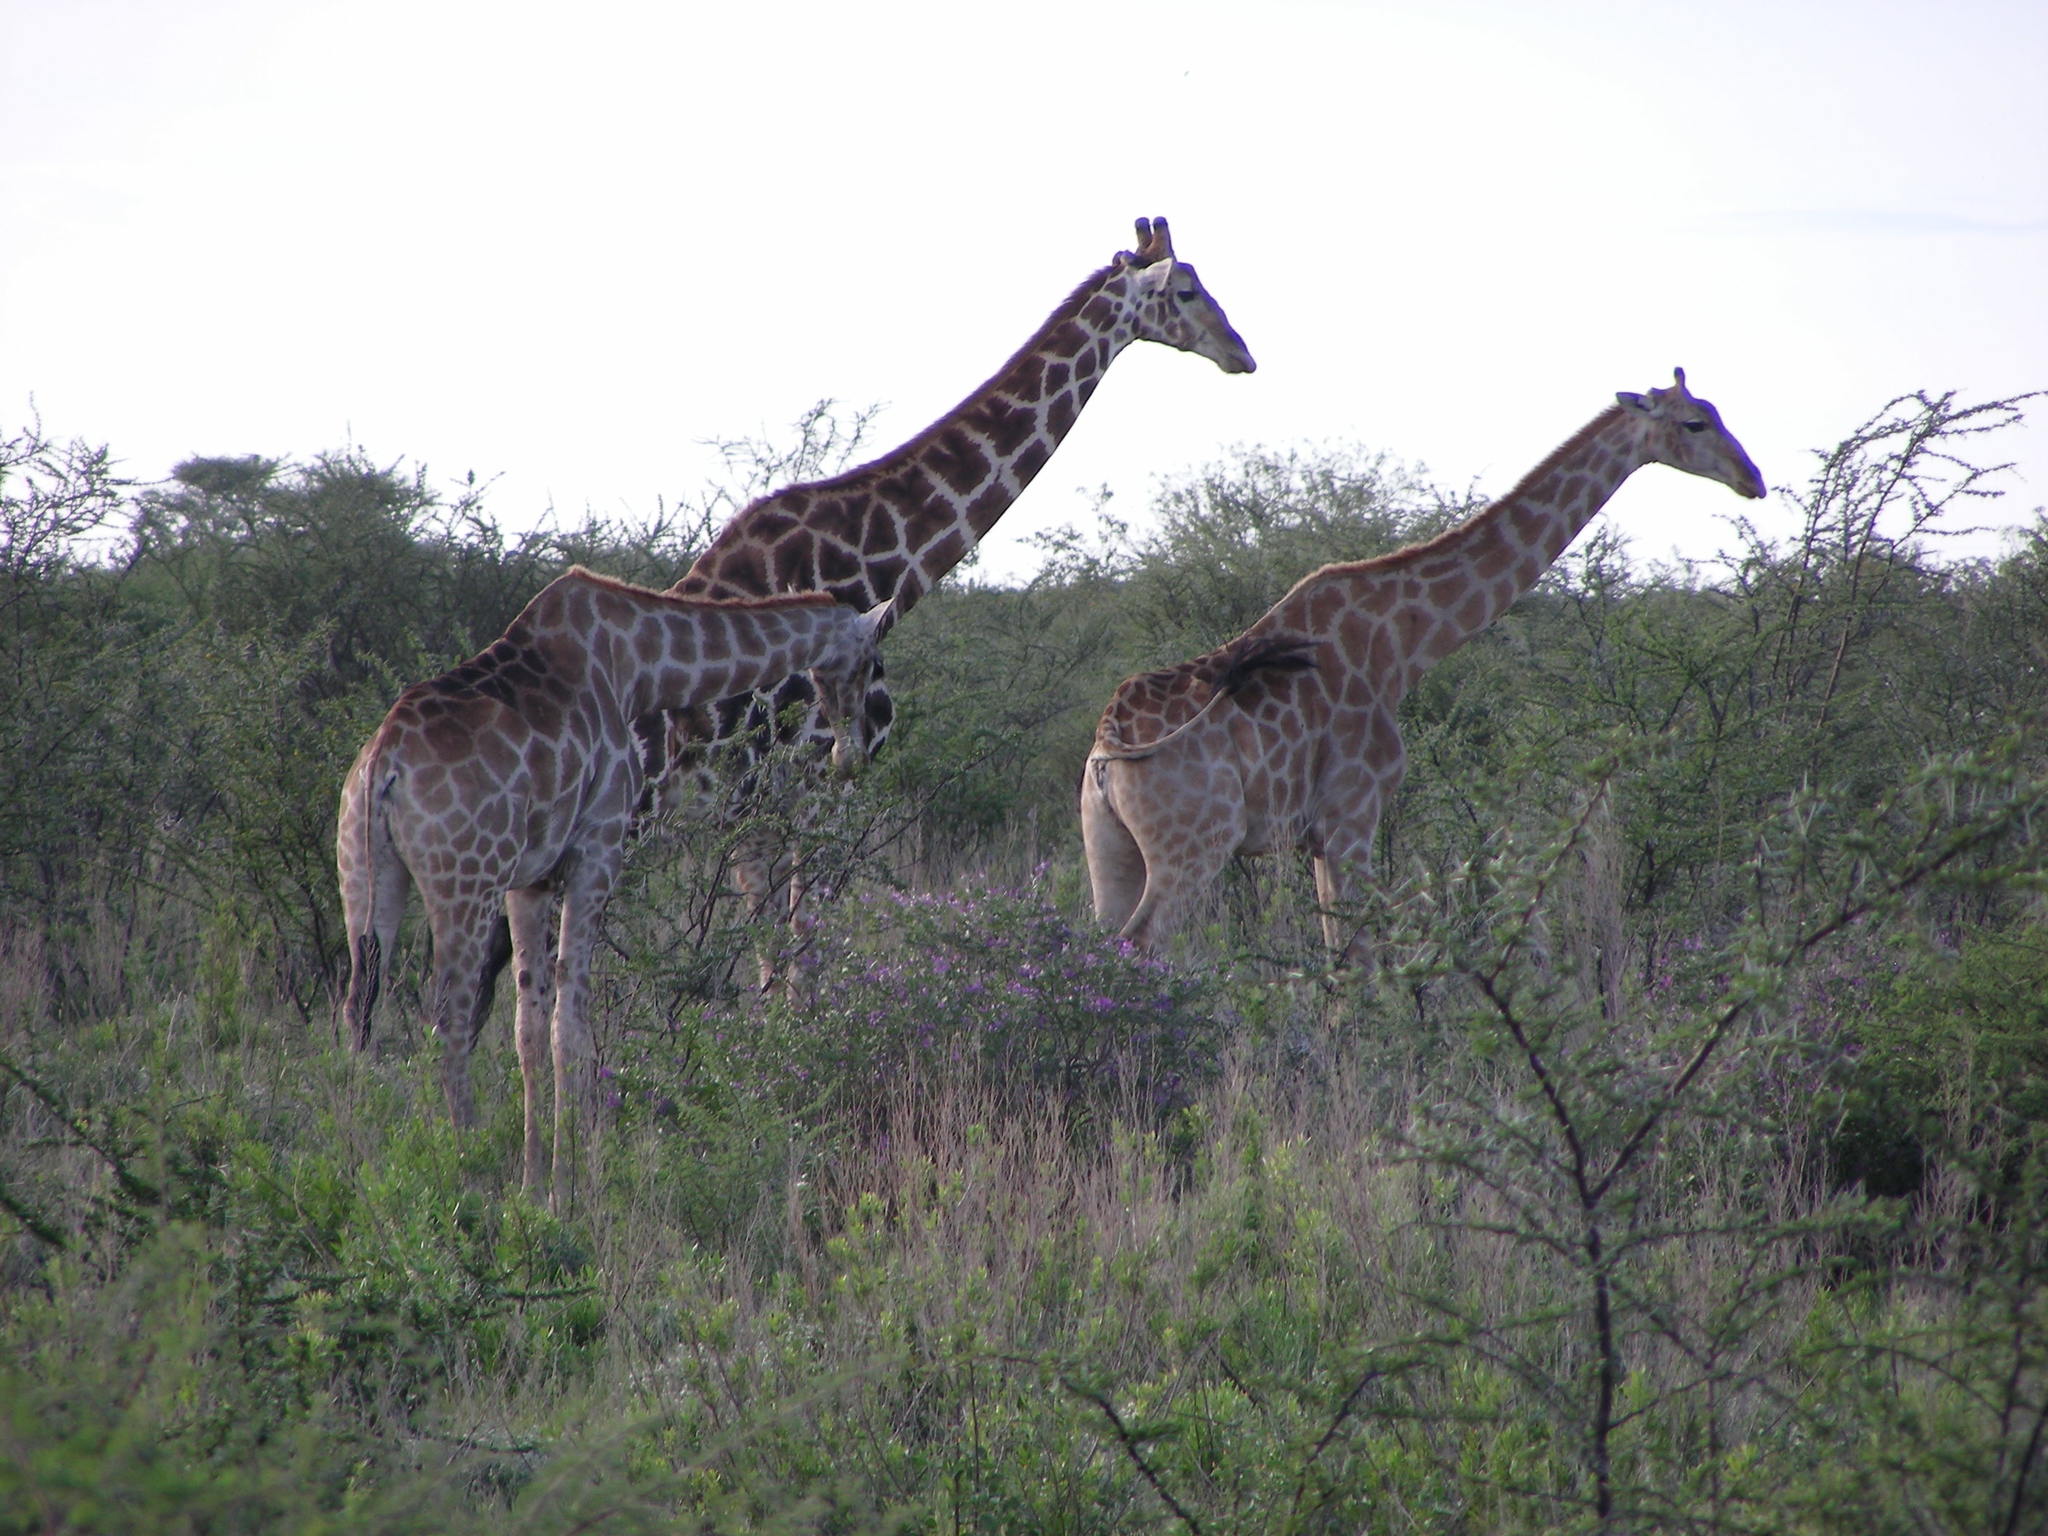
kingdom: Animalia
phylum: Chordata
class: Mammalia
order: Artiodactyla
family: Giraffidae
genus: Giraffa
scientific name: Giraffa giraffa
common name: Southern giraffe
